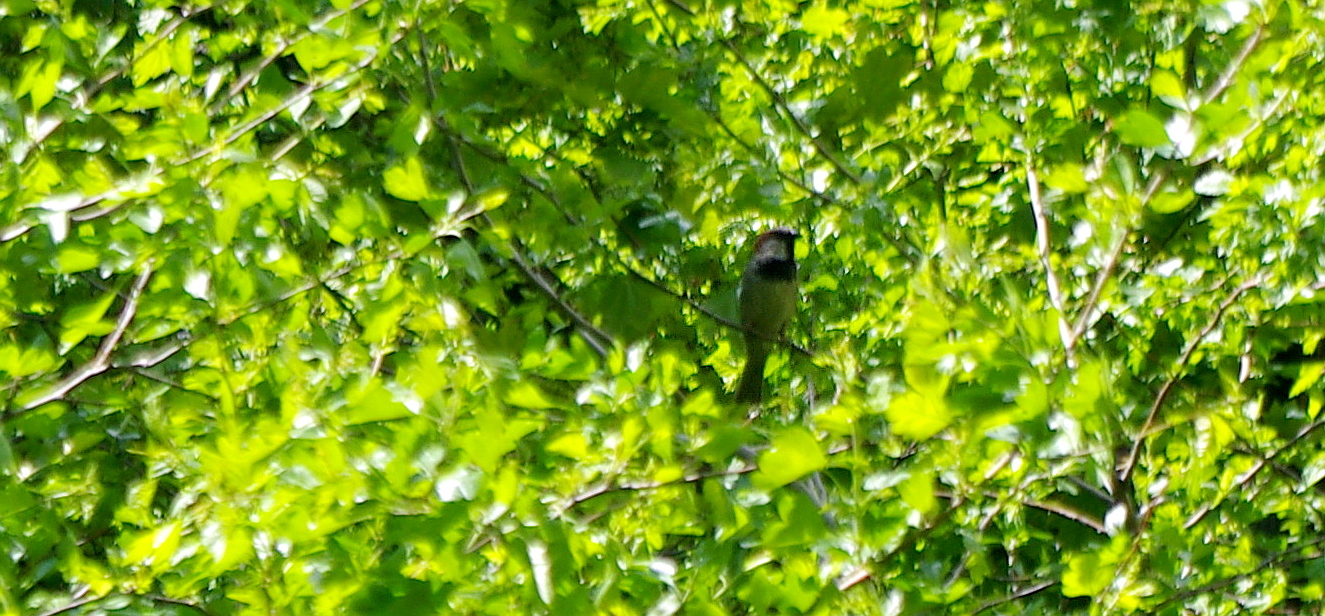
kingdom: Animalia
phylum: Chordata
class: Aves
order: Passeriformes
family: Passeridae
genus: Passer
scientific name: Passer domesticus
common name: House sparrow
